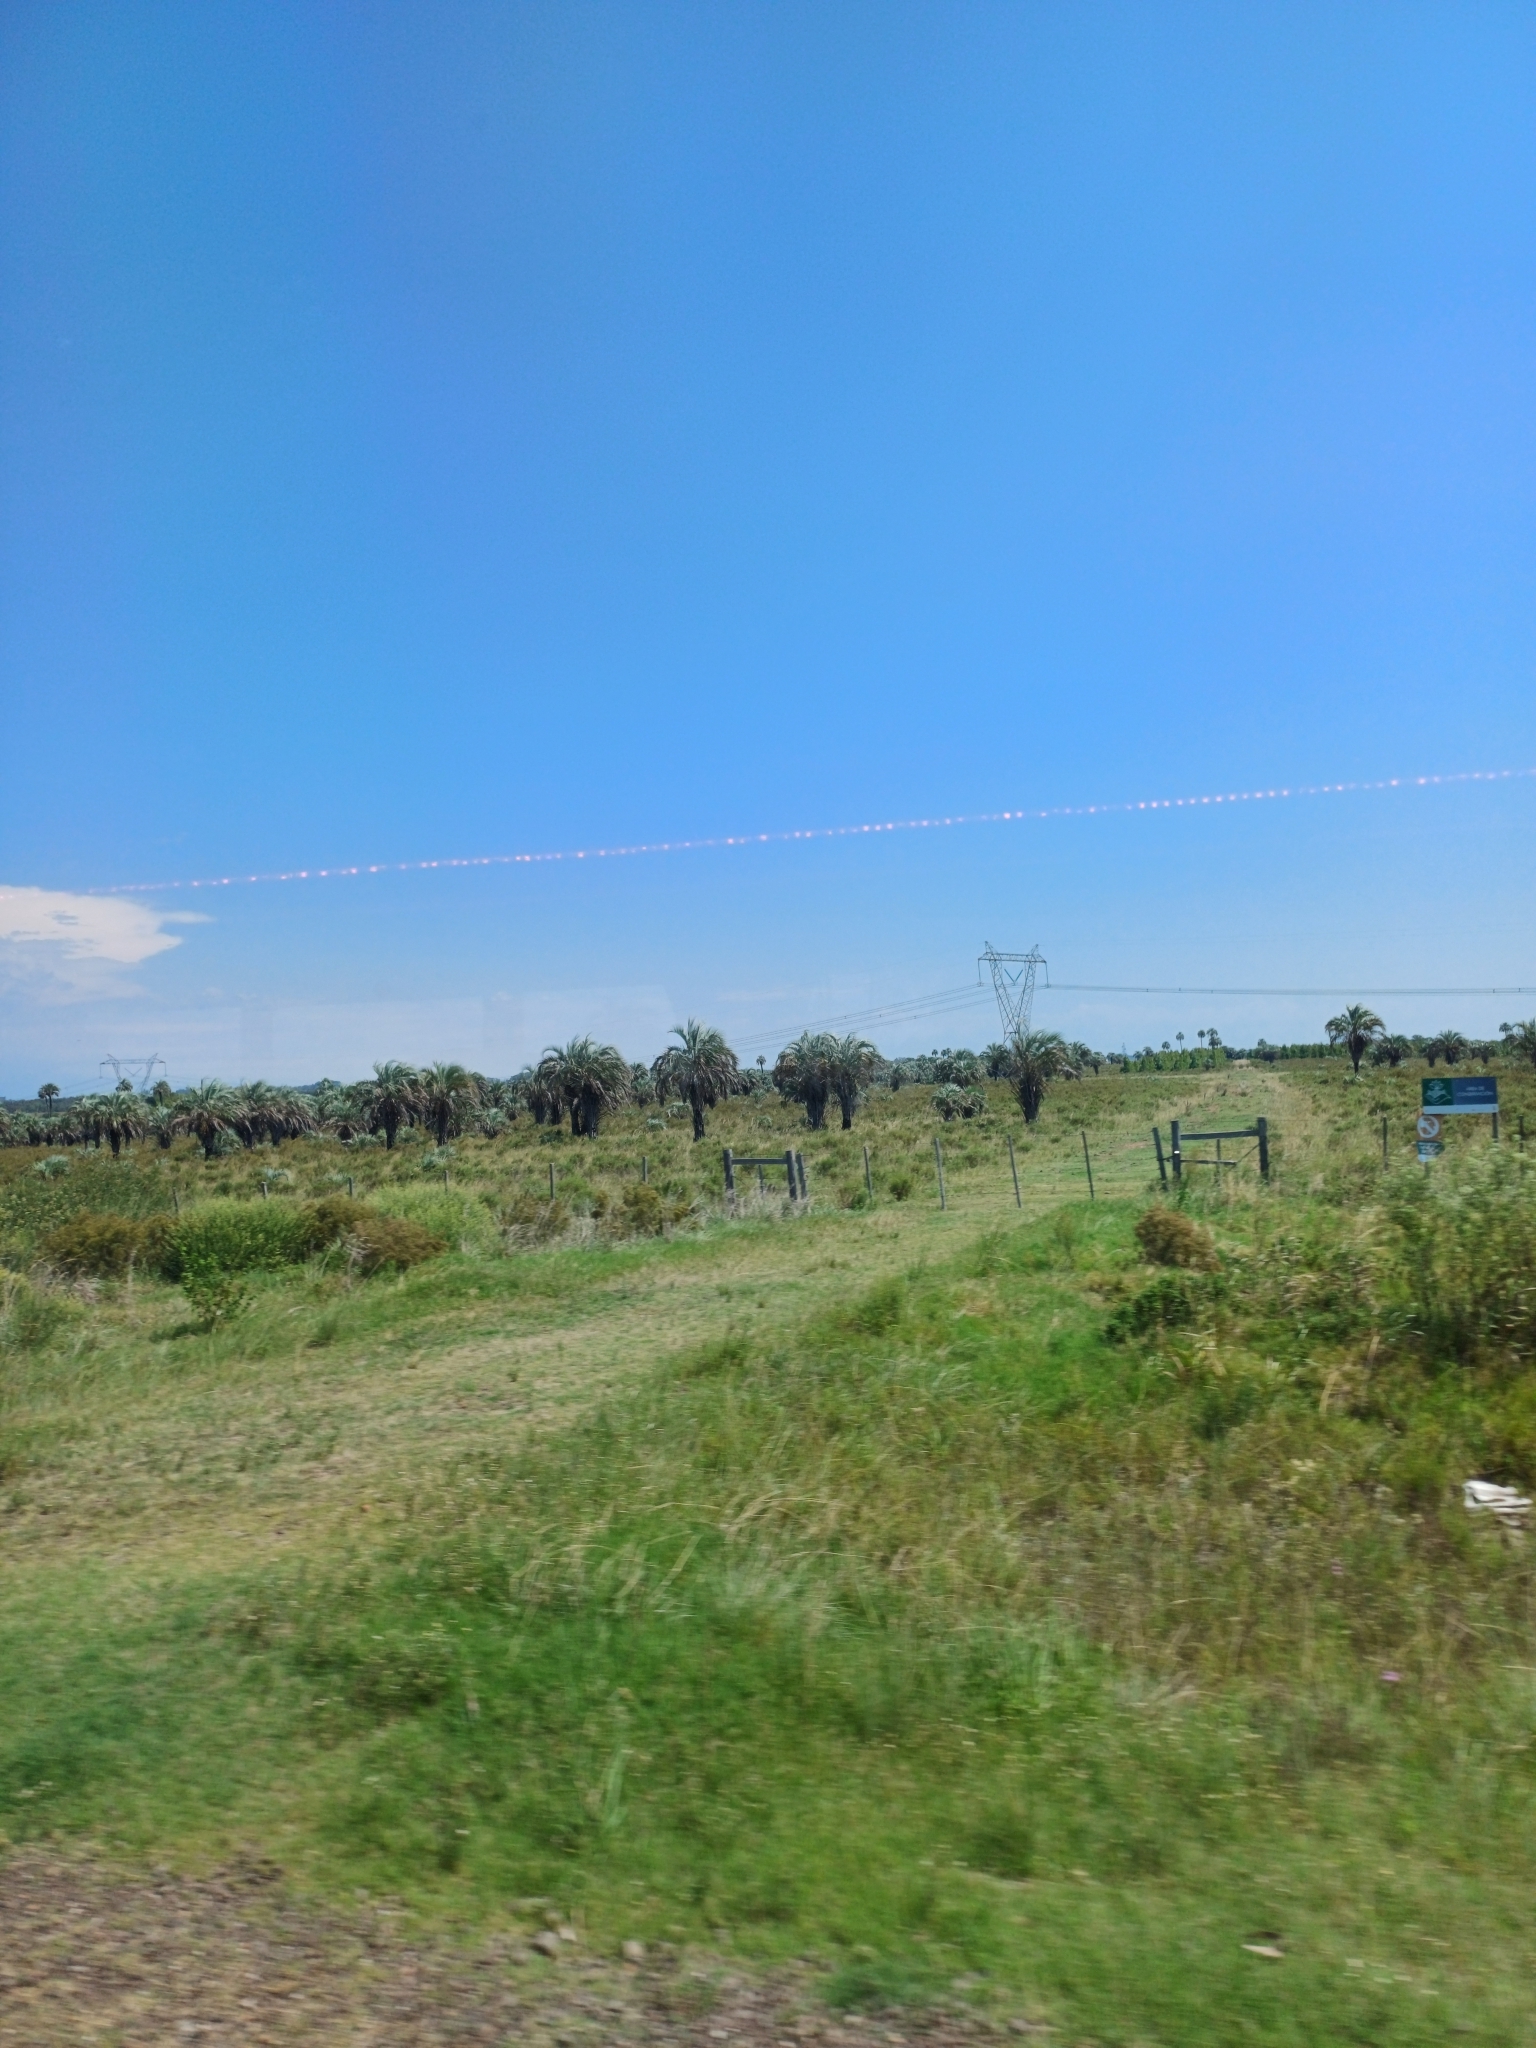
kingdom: Plantae
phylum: Tracheophyta
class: Liliopsida
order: Arecales
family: Arecaceae
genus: Butia
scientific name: Butia yatay
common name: Yatay palm
